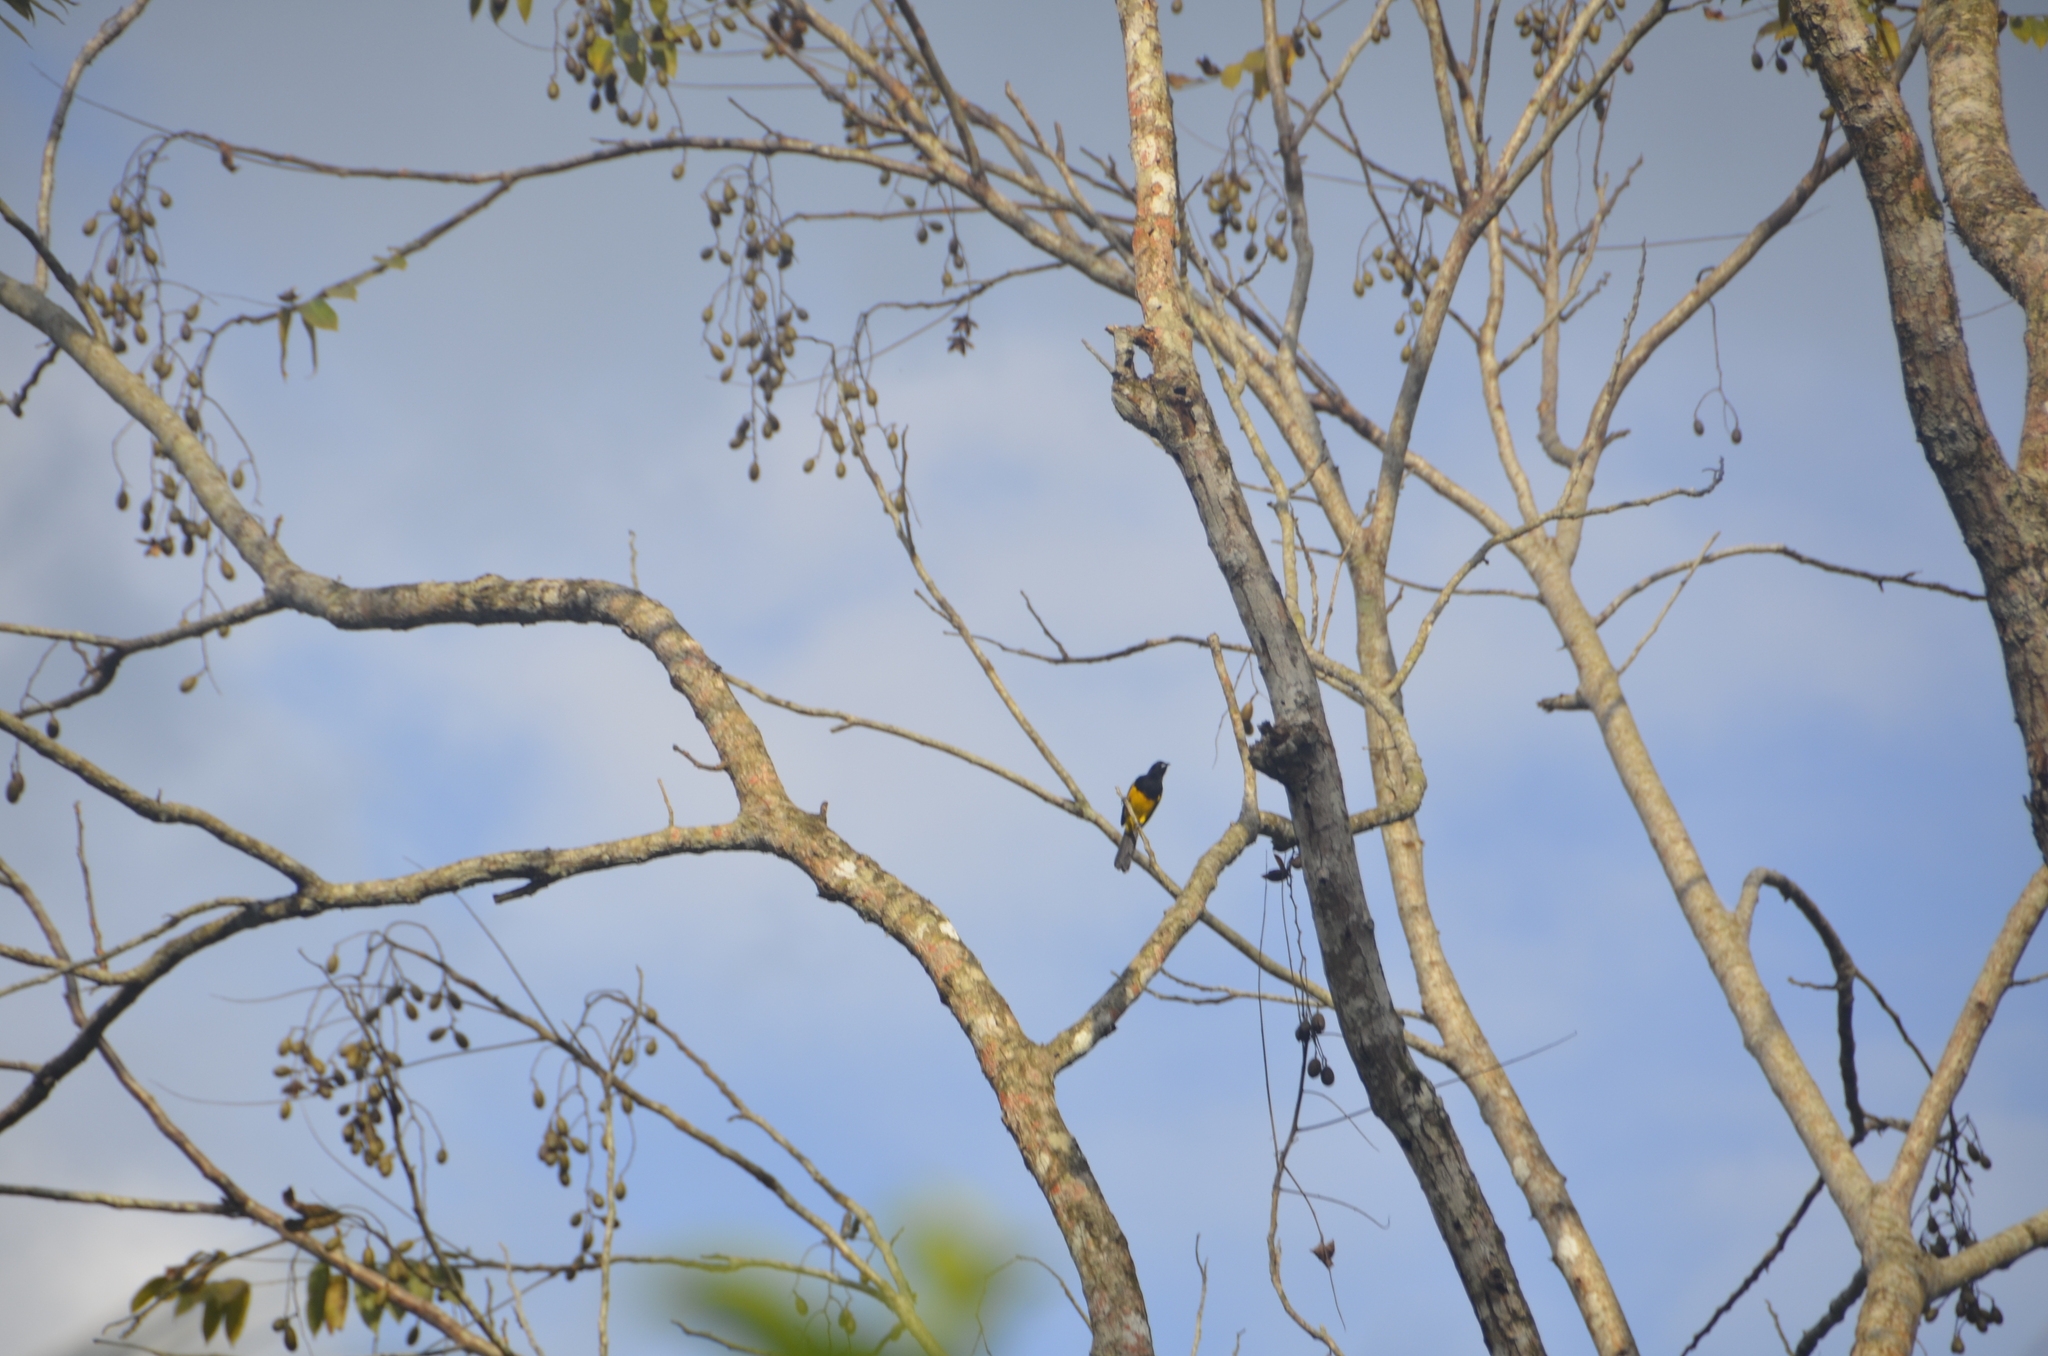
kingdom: Animalia
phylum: Chordata
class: Aves
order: Passeriformes
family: Icteridae
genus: Icterus
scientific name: Icterus prosthemelas
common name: Black-cowled oriole
